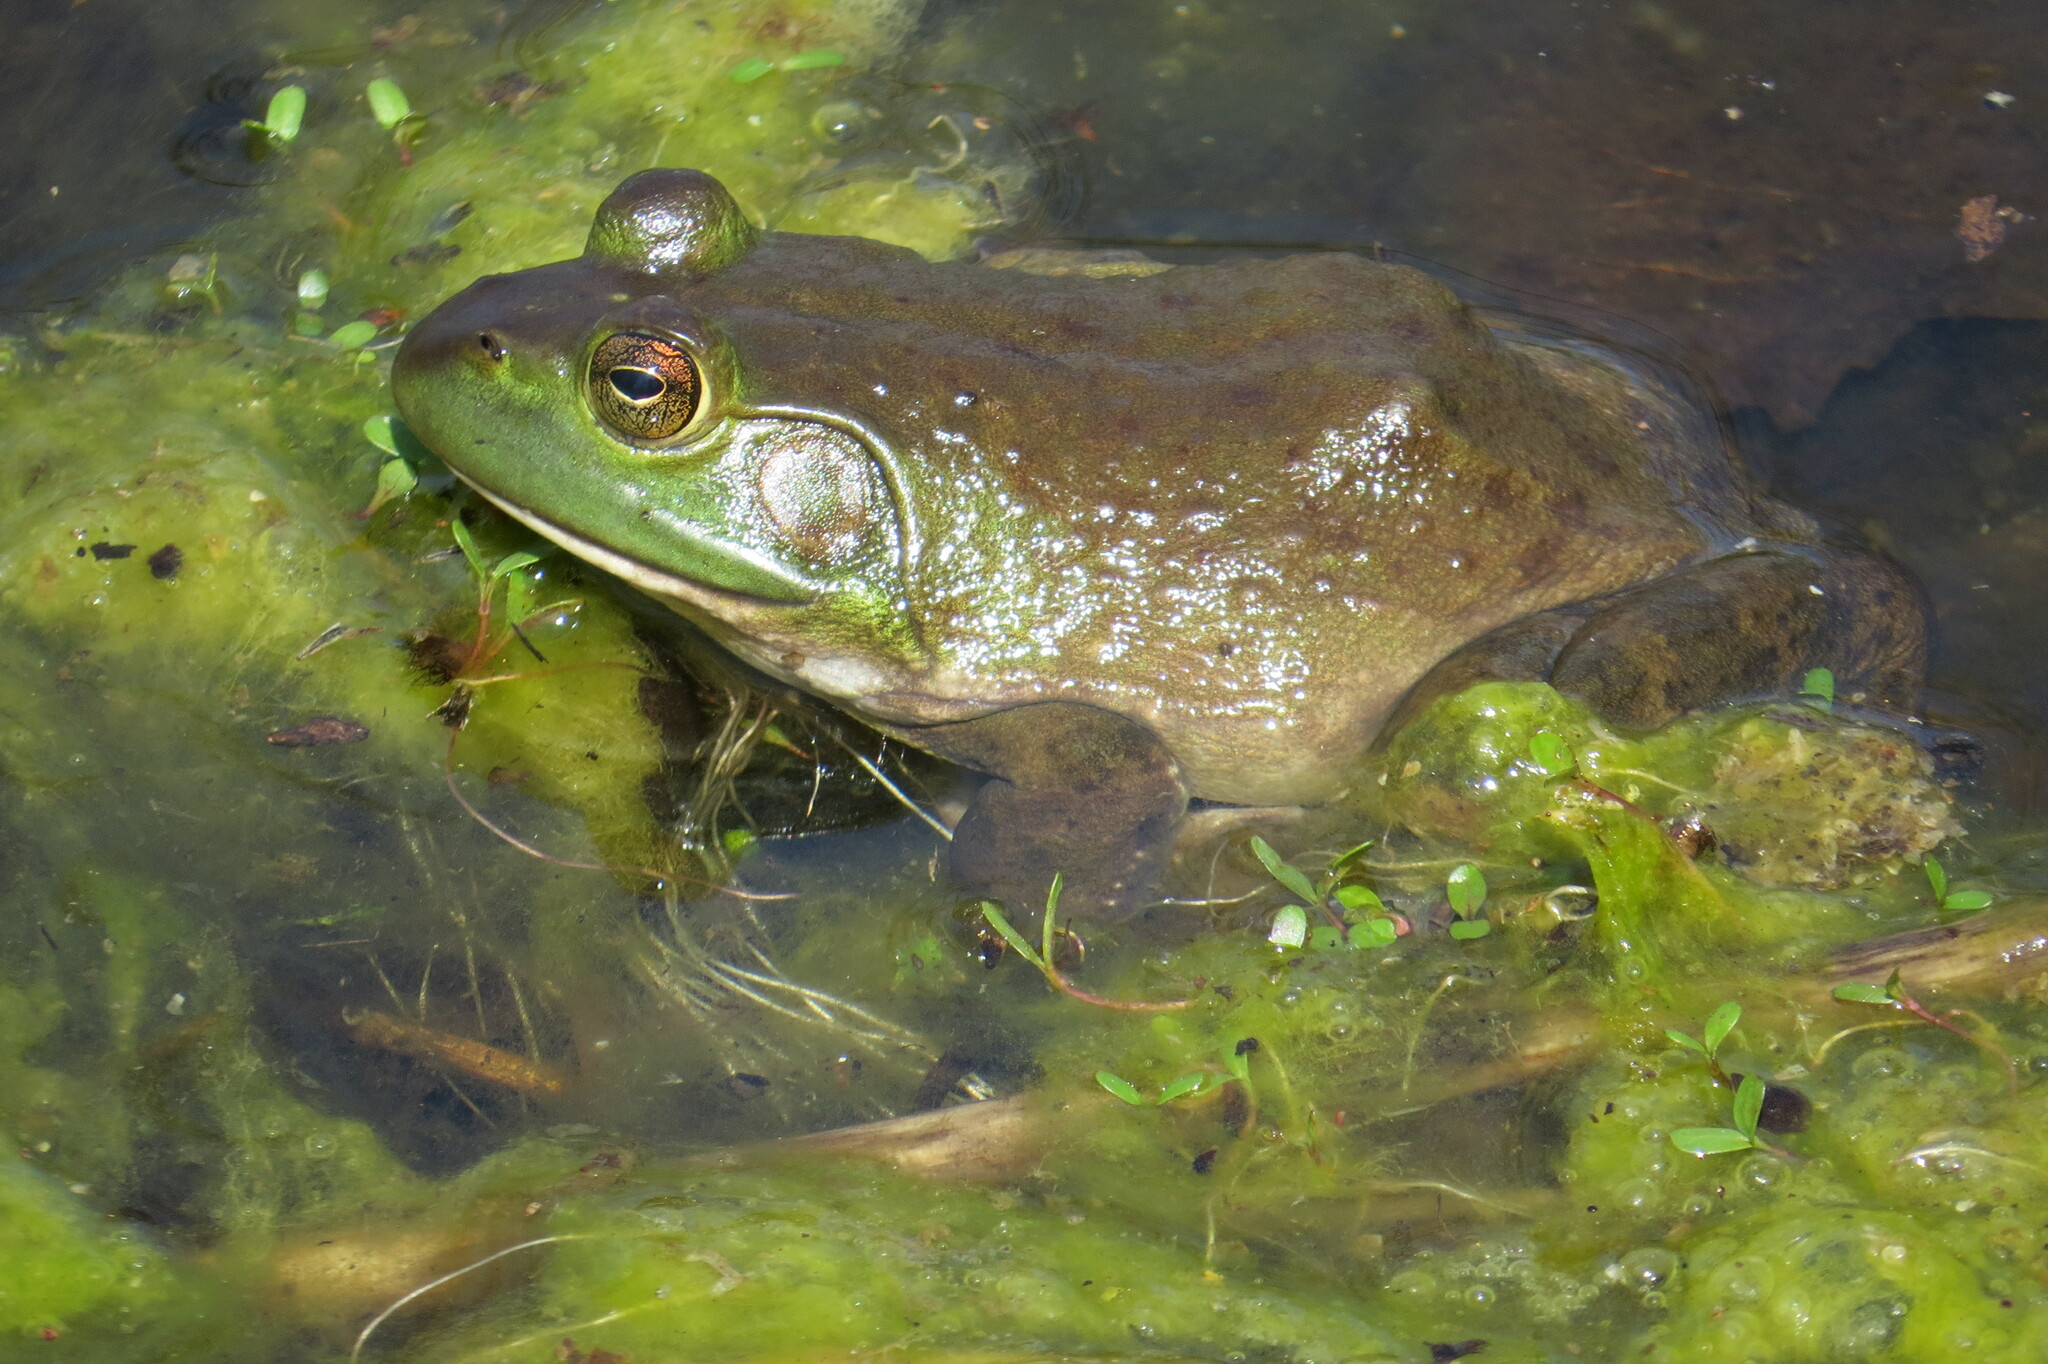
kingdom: Animalia
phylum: Chordata
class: Amphibia
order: Anura
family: Ranidae
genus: Lithobates
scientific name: Lithobates catesbeianus
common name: American bullfrog
